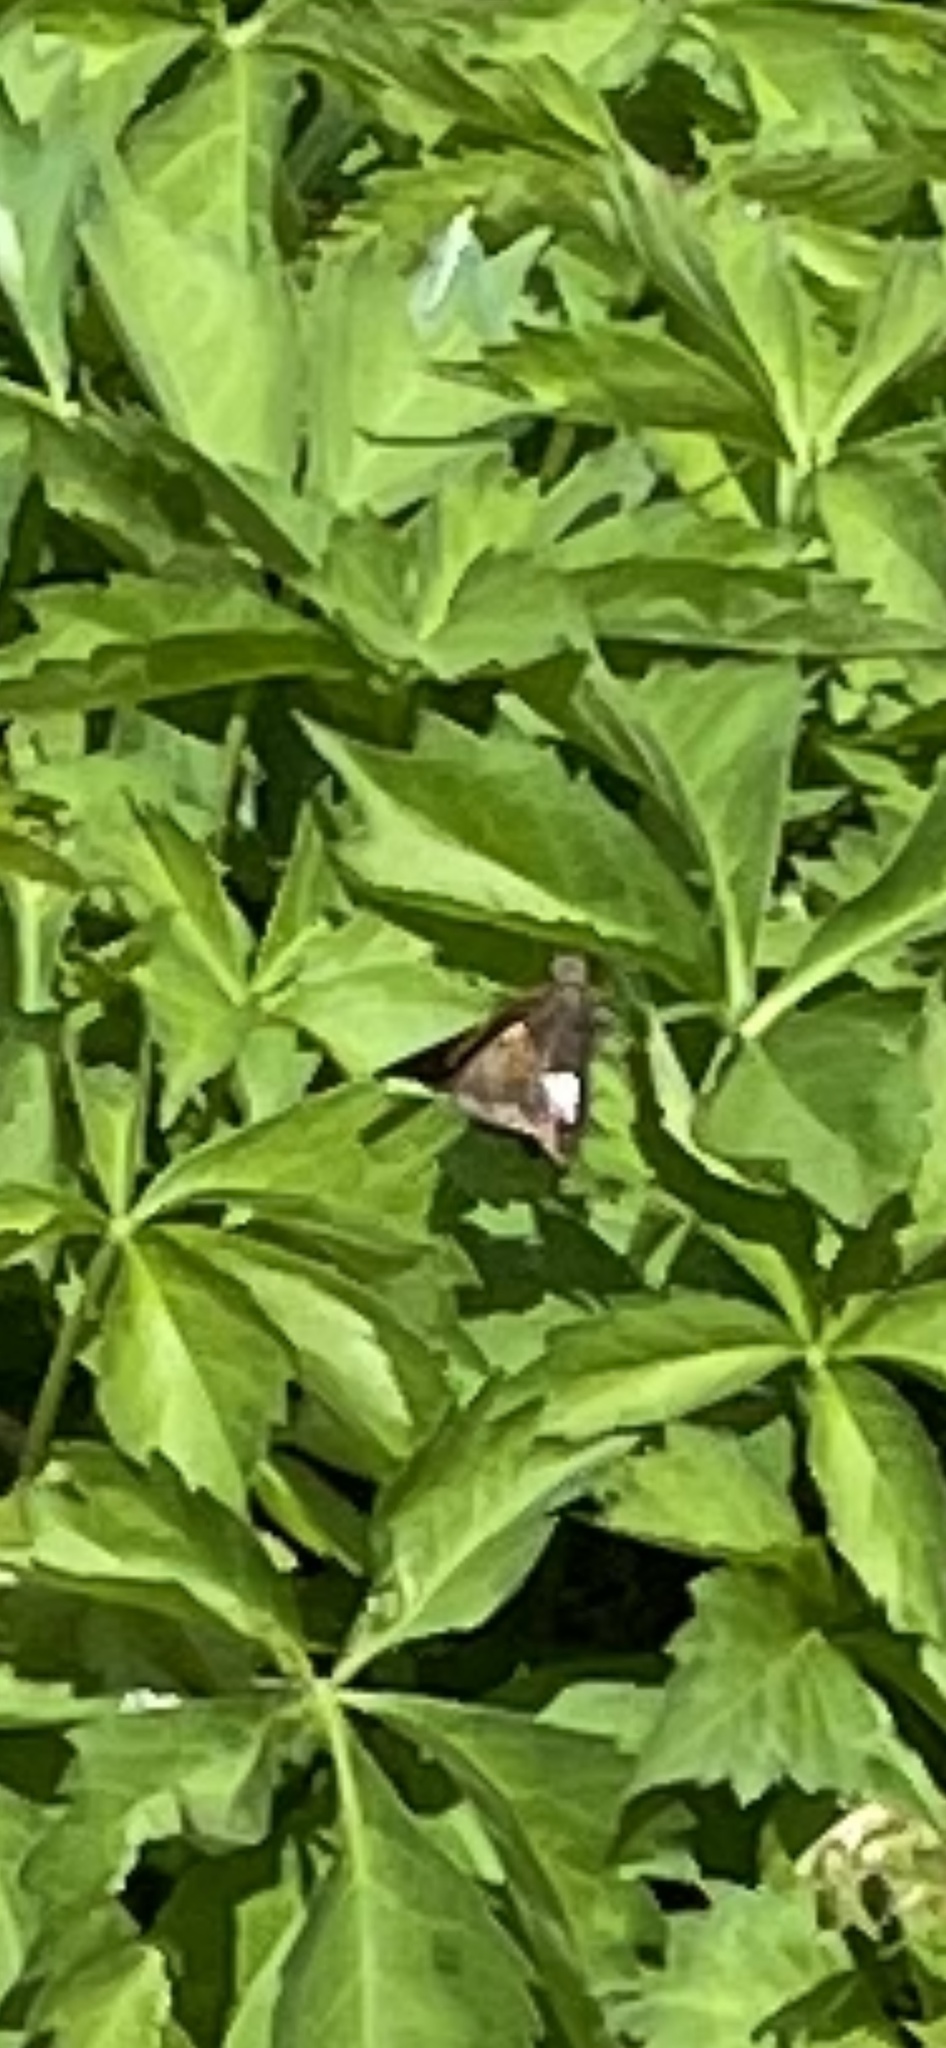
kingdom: Animalia
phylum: Arthropoda
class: Insecta
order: Lepidoptera
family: Hesperiidae
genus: Epargyreus
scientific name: Epargyreus clarus
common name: Silver-spotted skipper
